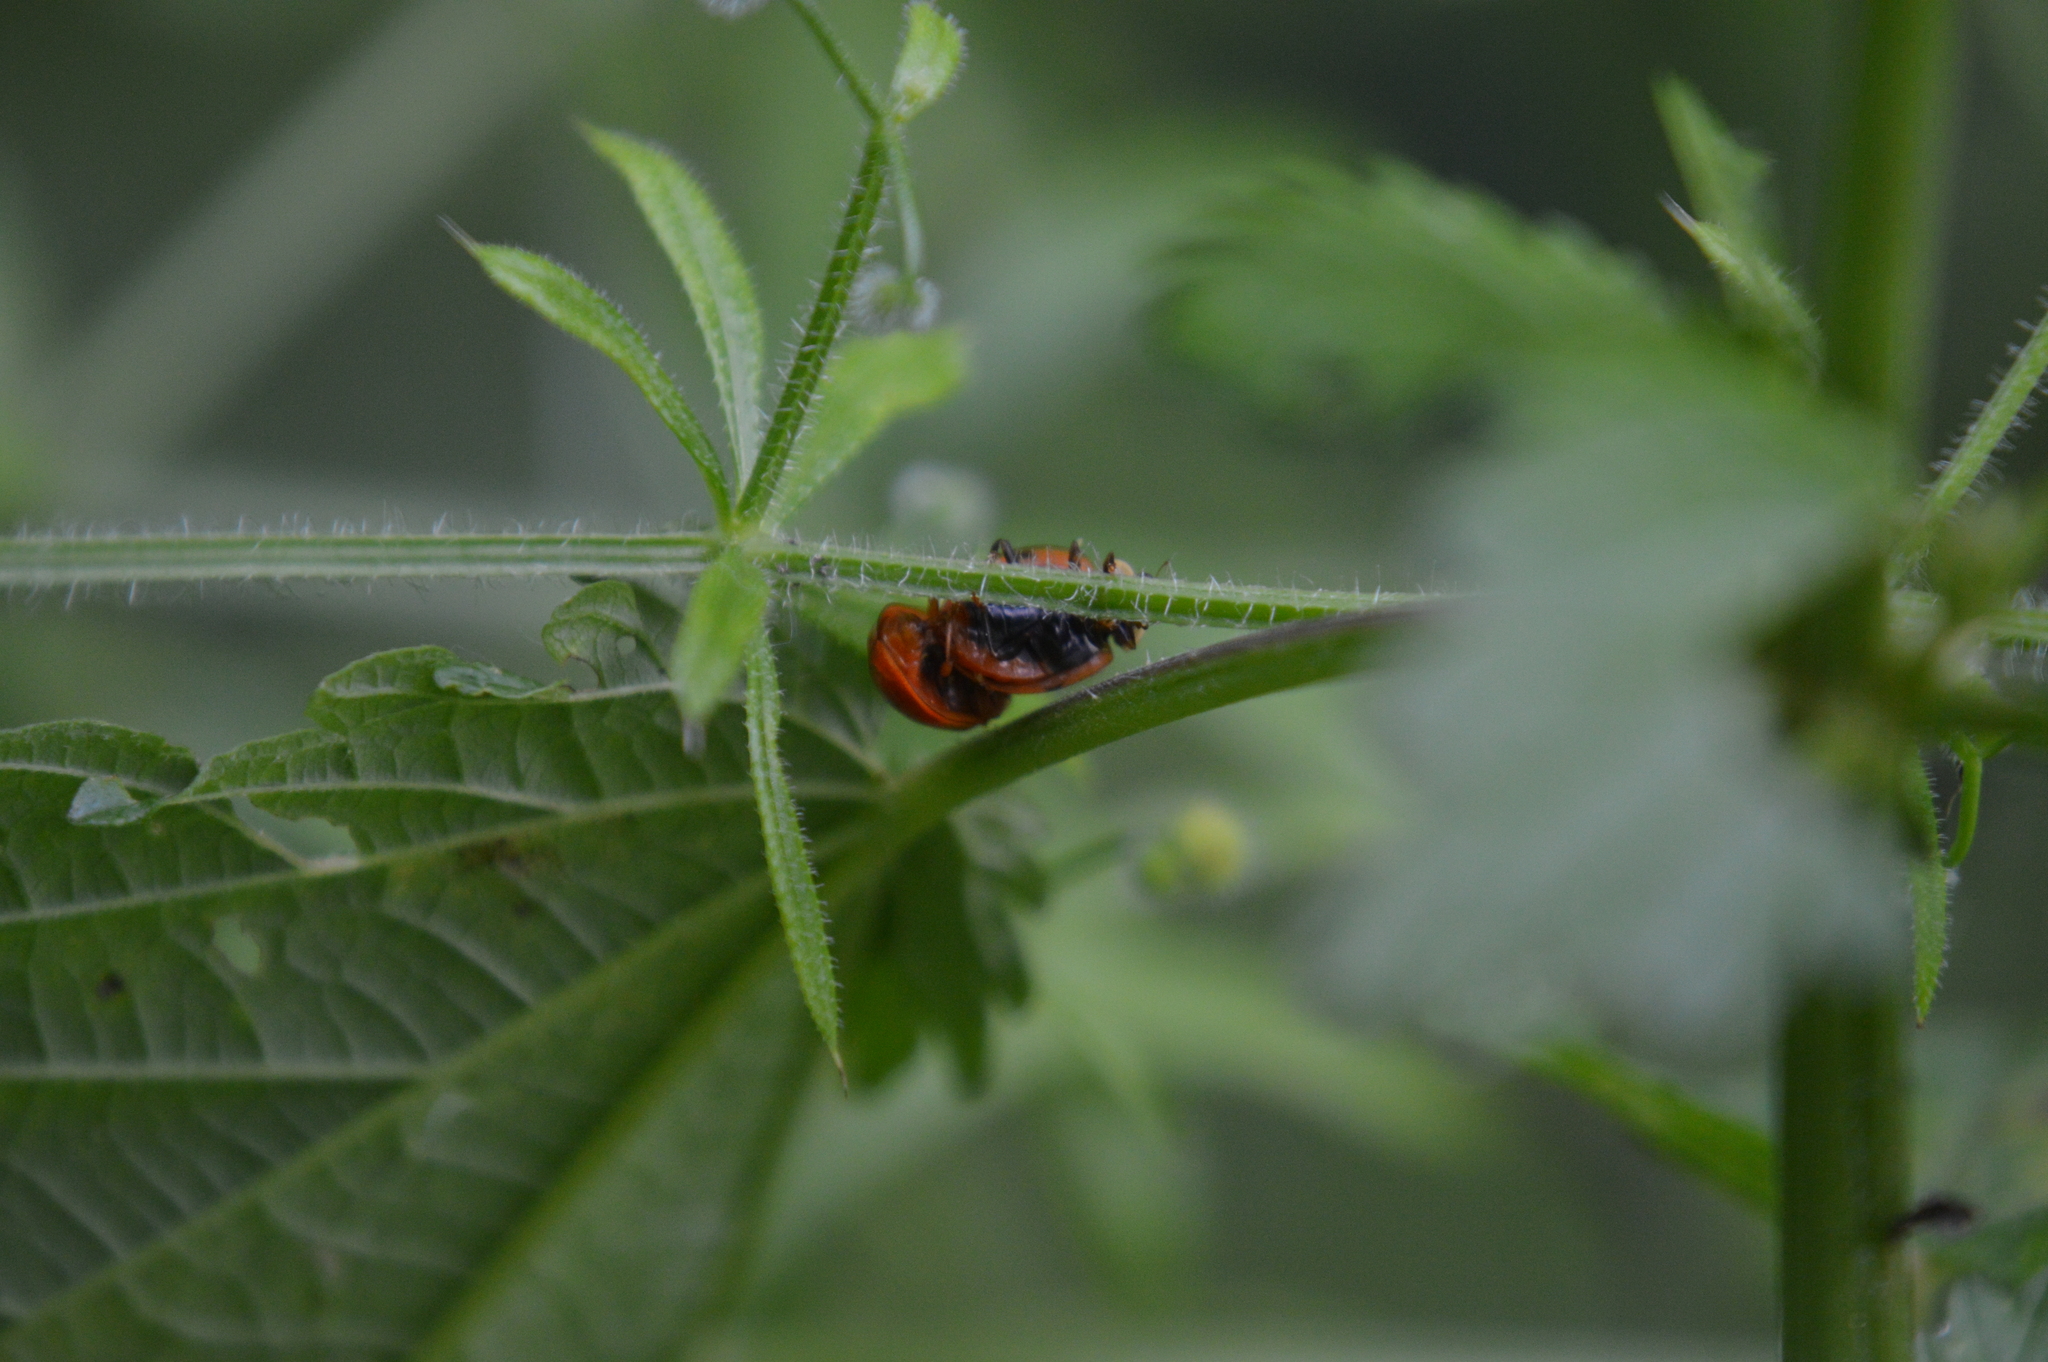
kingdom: Animalia
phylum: Arthropoda
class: Insecta
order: Coleoptera
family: Coccinellidae
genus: Harmonia
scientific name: Harmonia axyridis
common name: Harlequin ladybird
